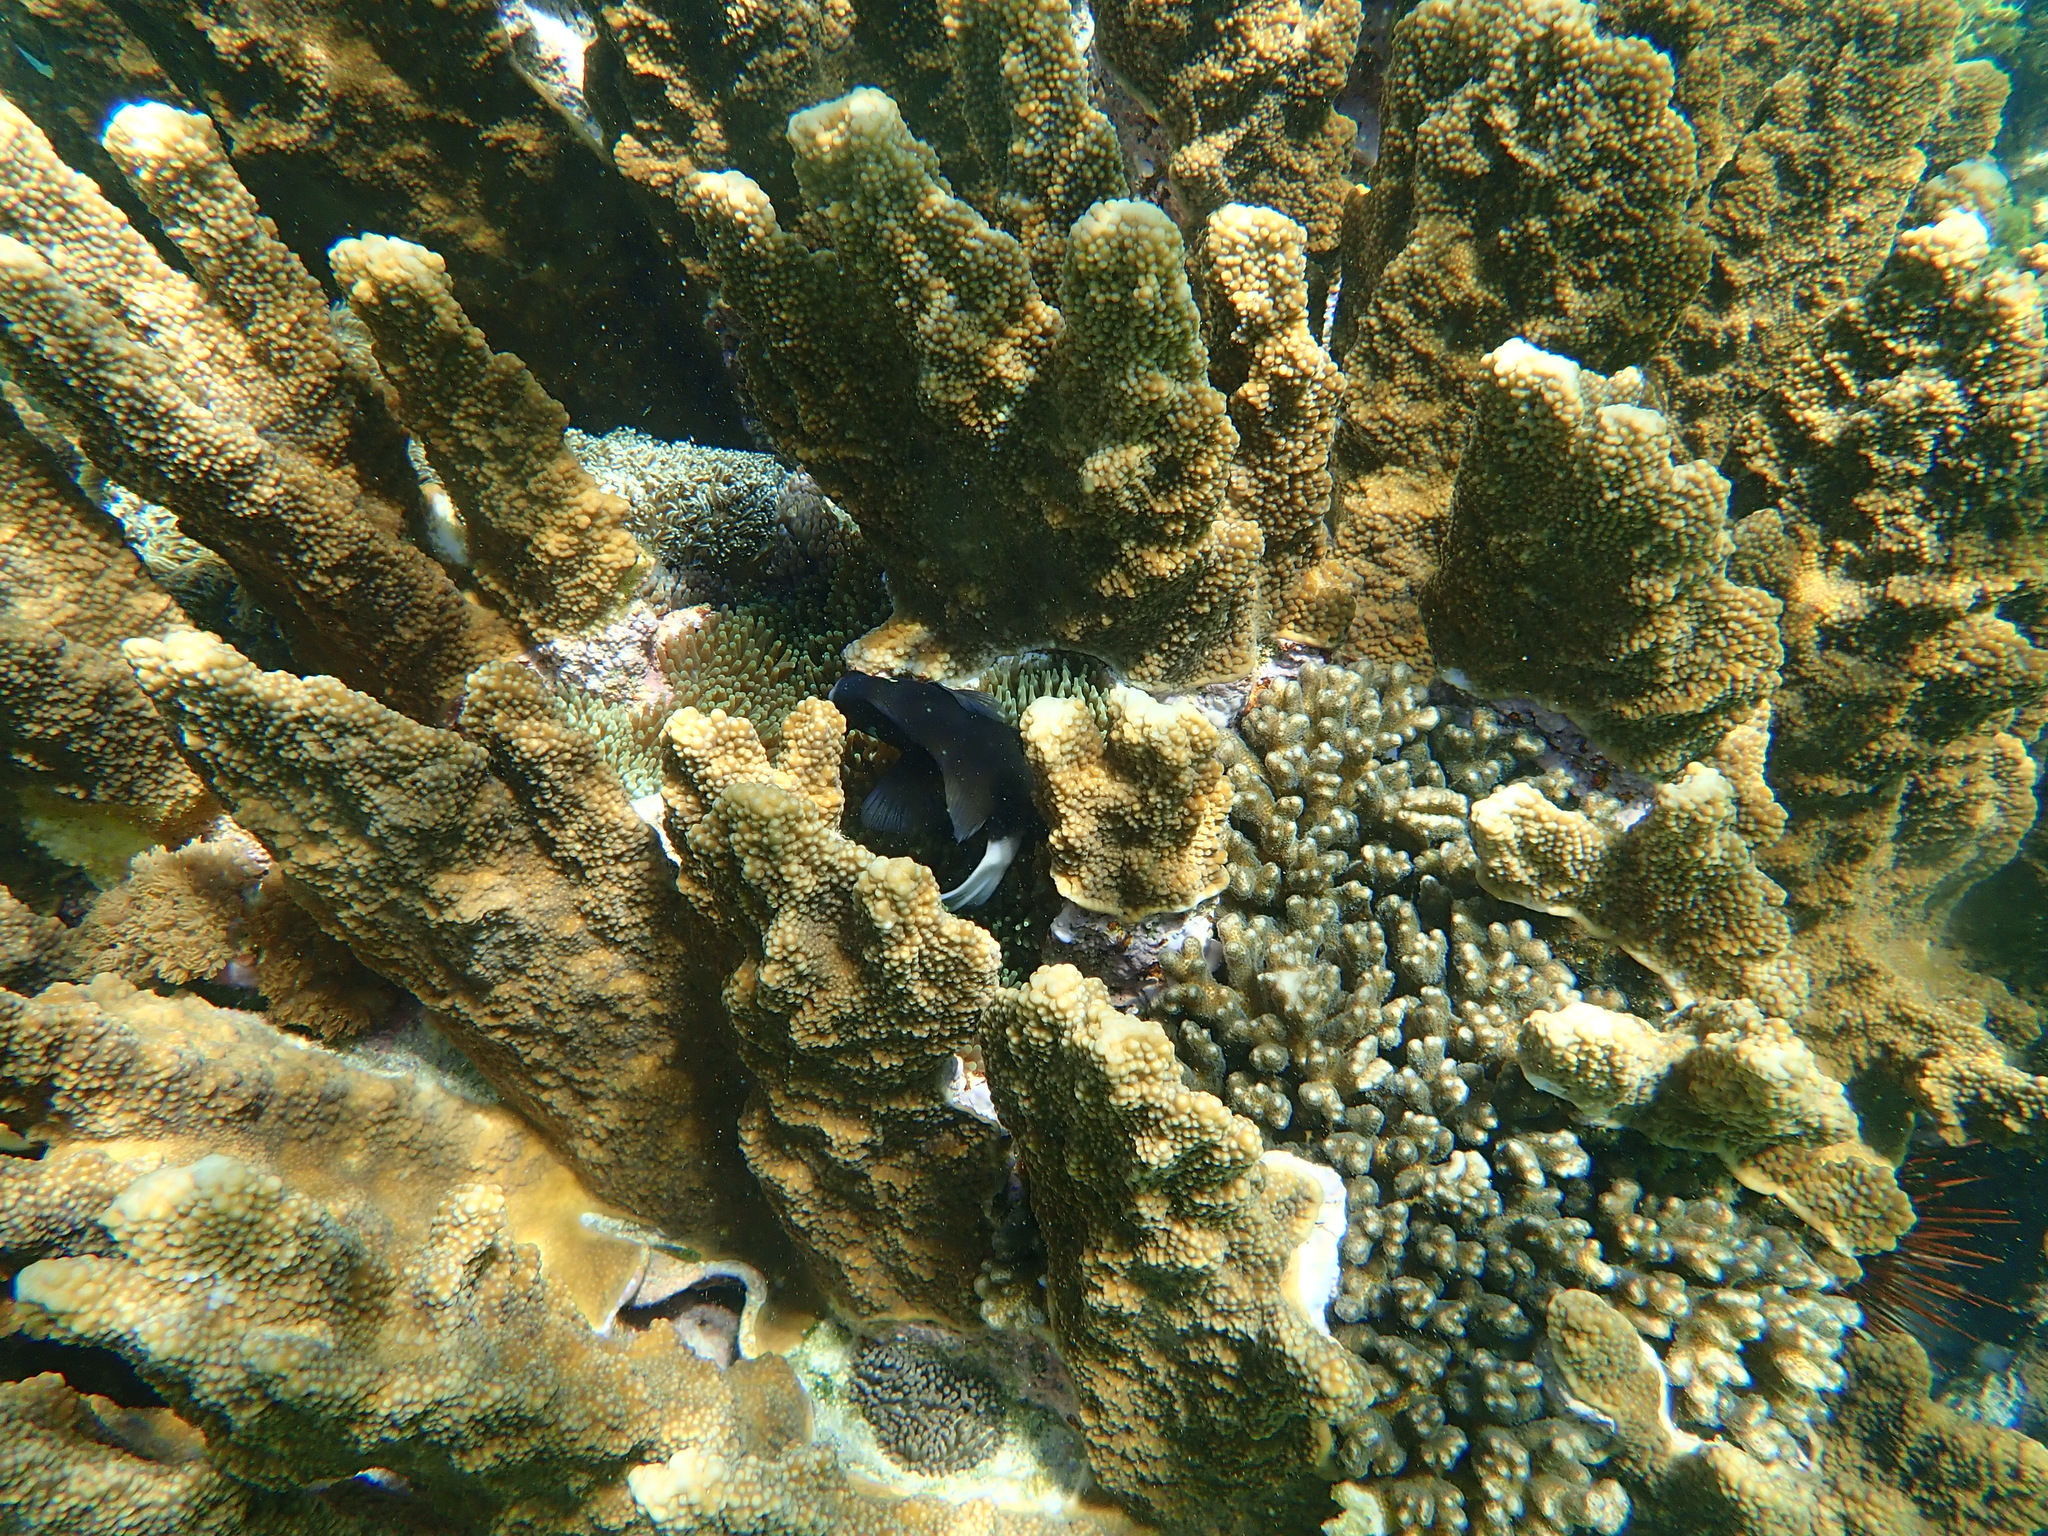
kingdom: Animalia
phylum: Cnidaria
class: Anthozoa
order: Actiniaria
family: Actiniidae
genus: Entacmaea
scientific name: Entacmaea quadricolor
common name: Bulb tentacle sea anemone
